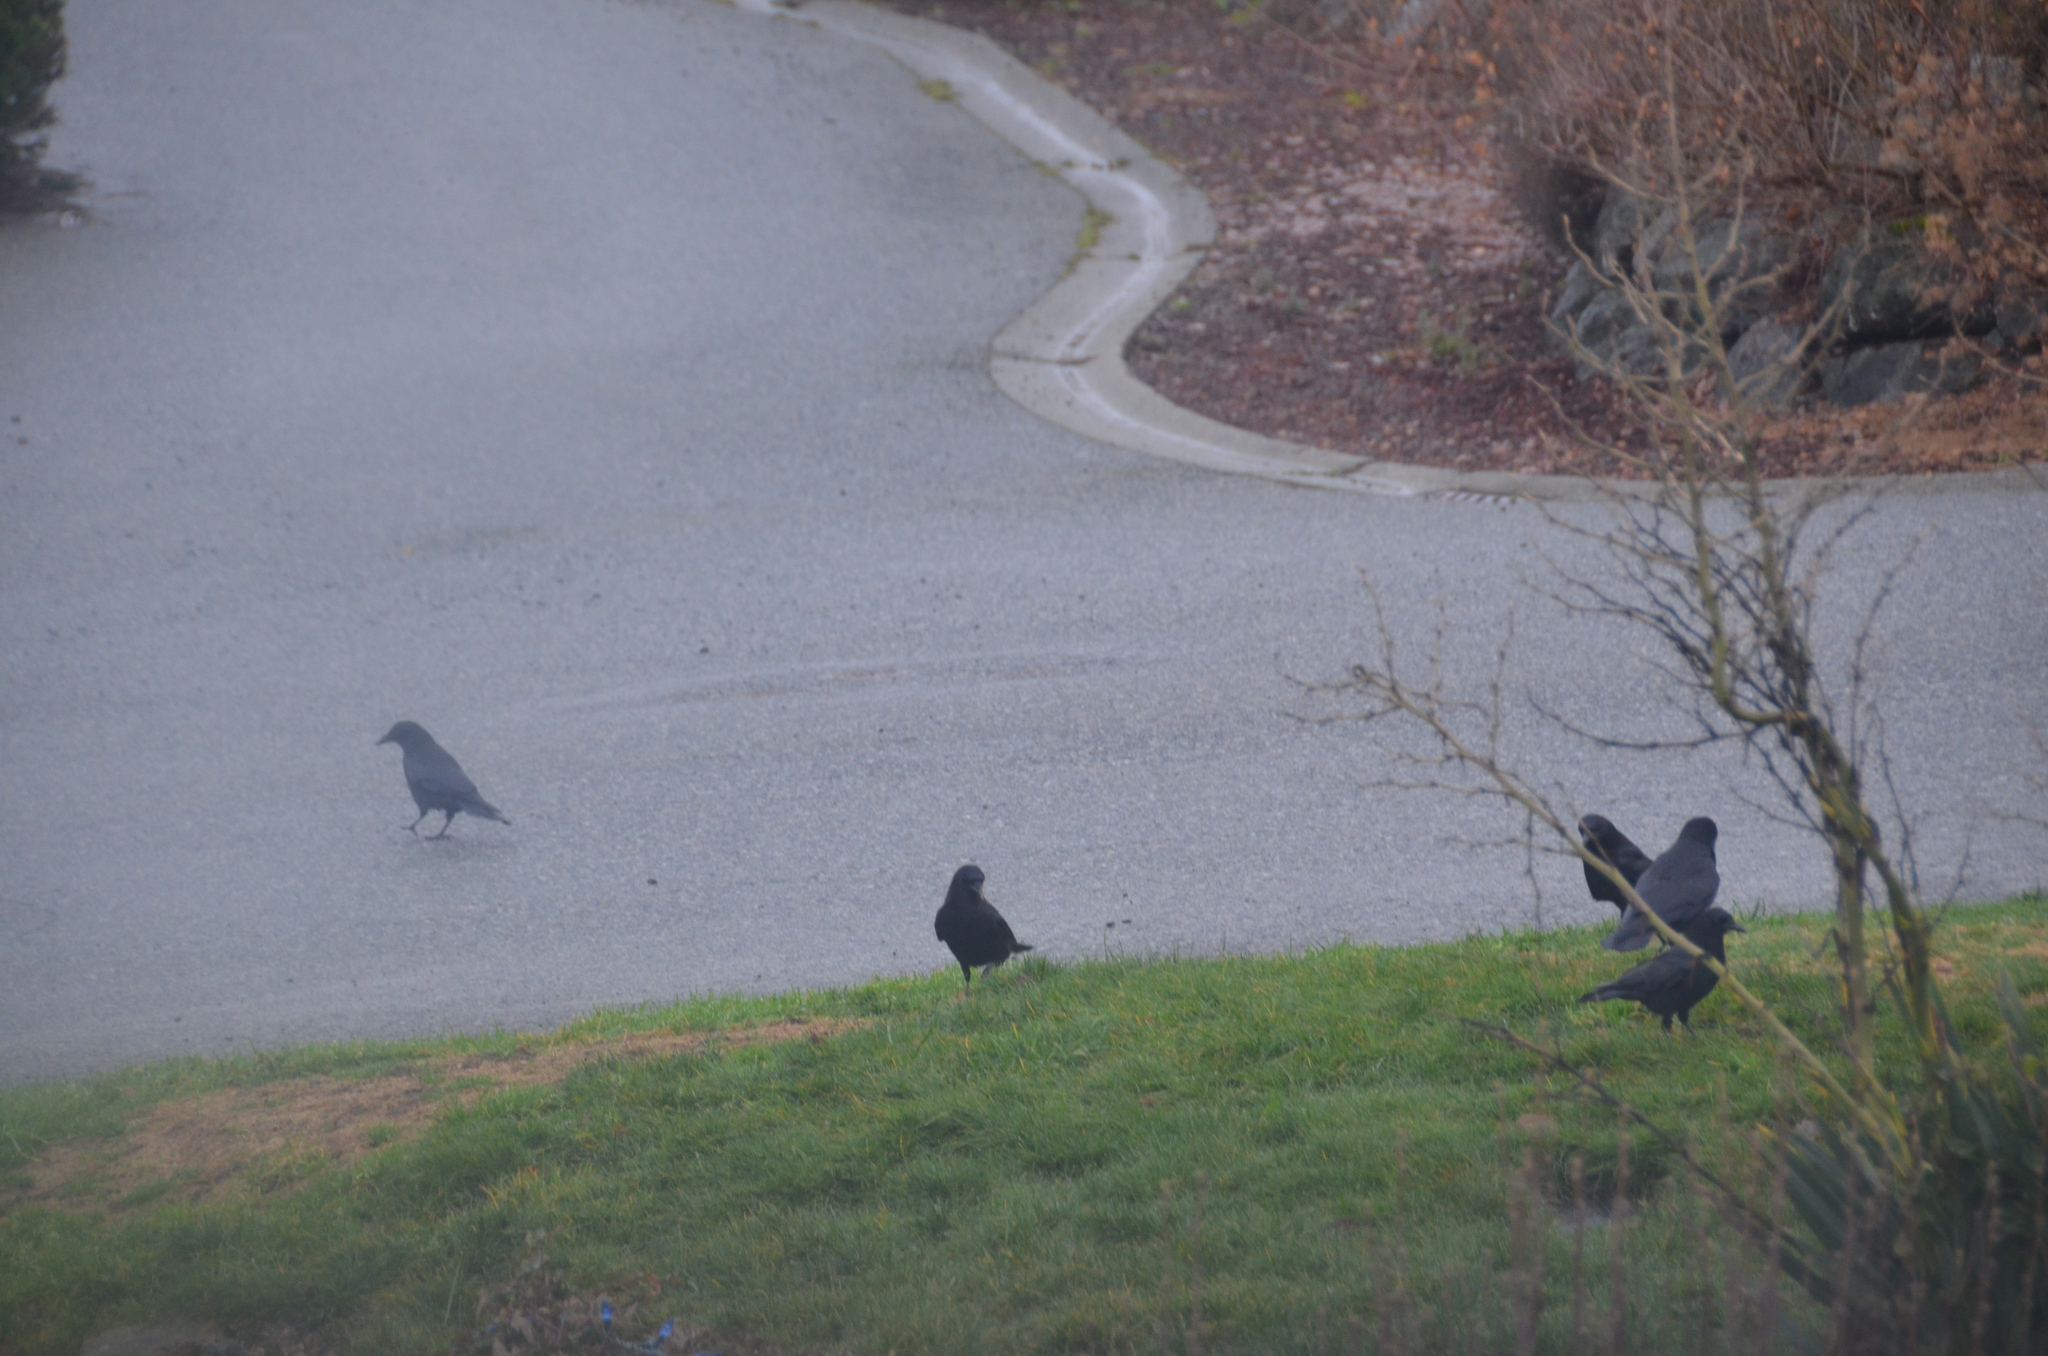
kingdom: Animalia
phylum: Chordata
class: Aves
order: Passeriformes
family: Corvidae
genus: Corvus
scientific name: Corvus brachyrhynchos
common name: American crow
